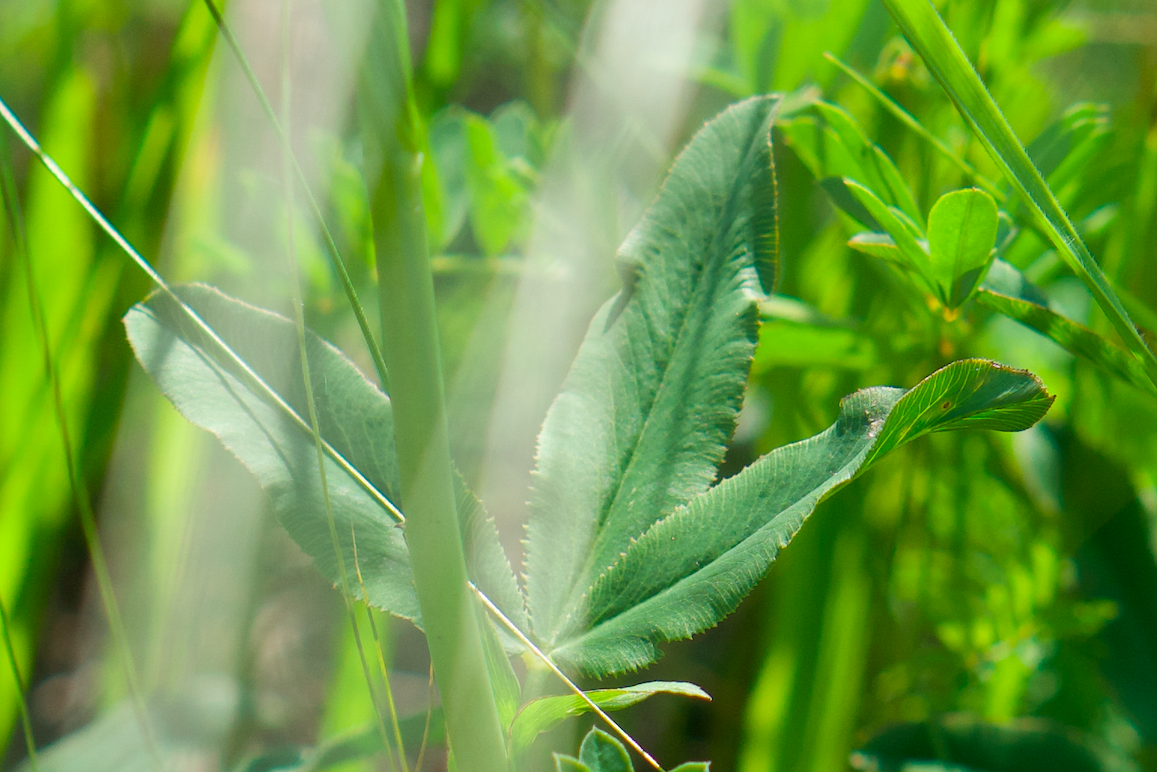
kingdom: Plantae
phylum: Tracheophyta
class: Magnoliopsida
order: Fabales
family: Fabaceae
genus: Trifolium
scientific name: Trifolium rubens
